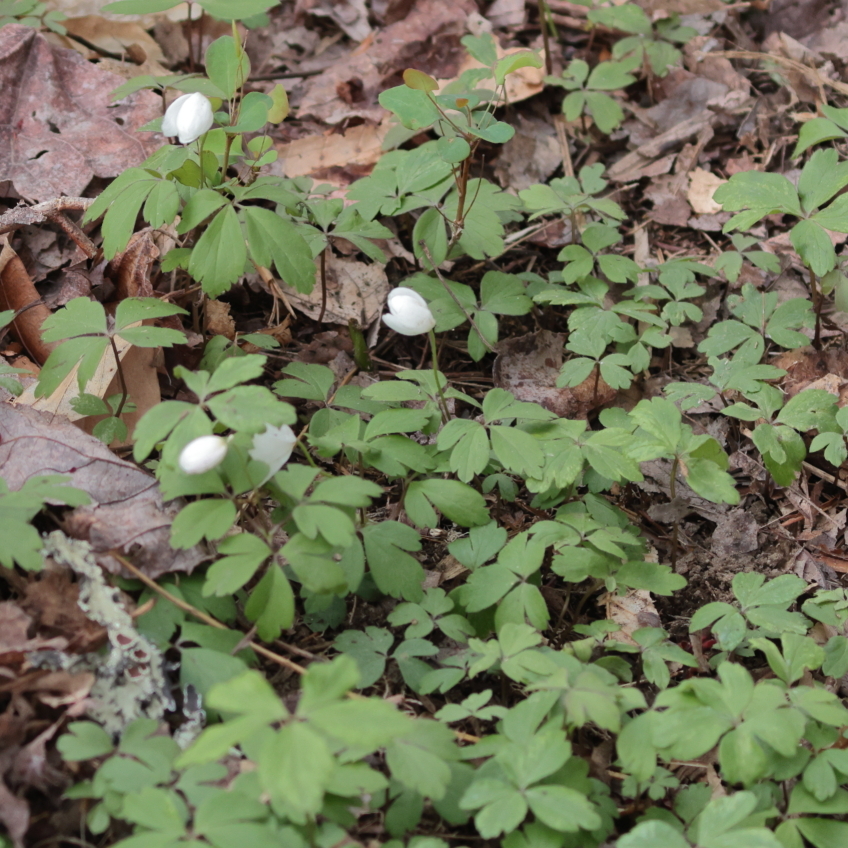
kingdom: Plantae
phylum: Tracheophyta
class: Magnoliopsida
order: Ranunculales
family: Ranunculaceae
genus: Anemone
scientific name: Anemone quinquefolia
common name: Wood anemone
